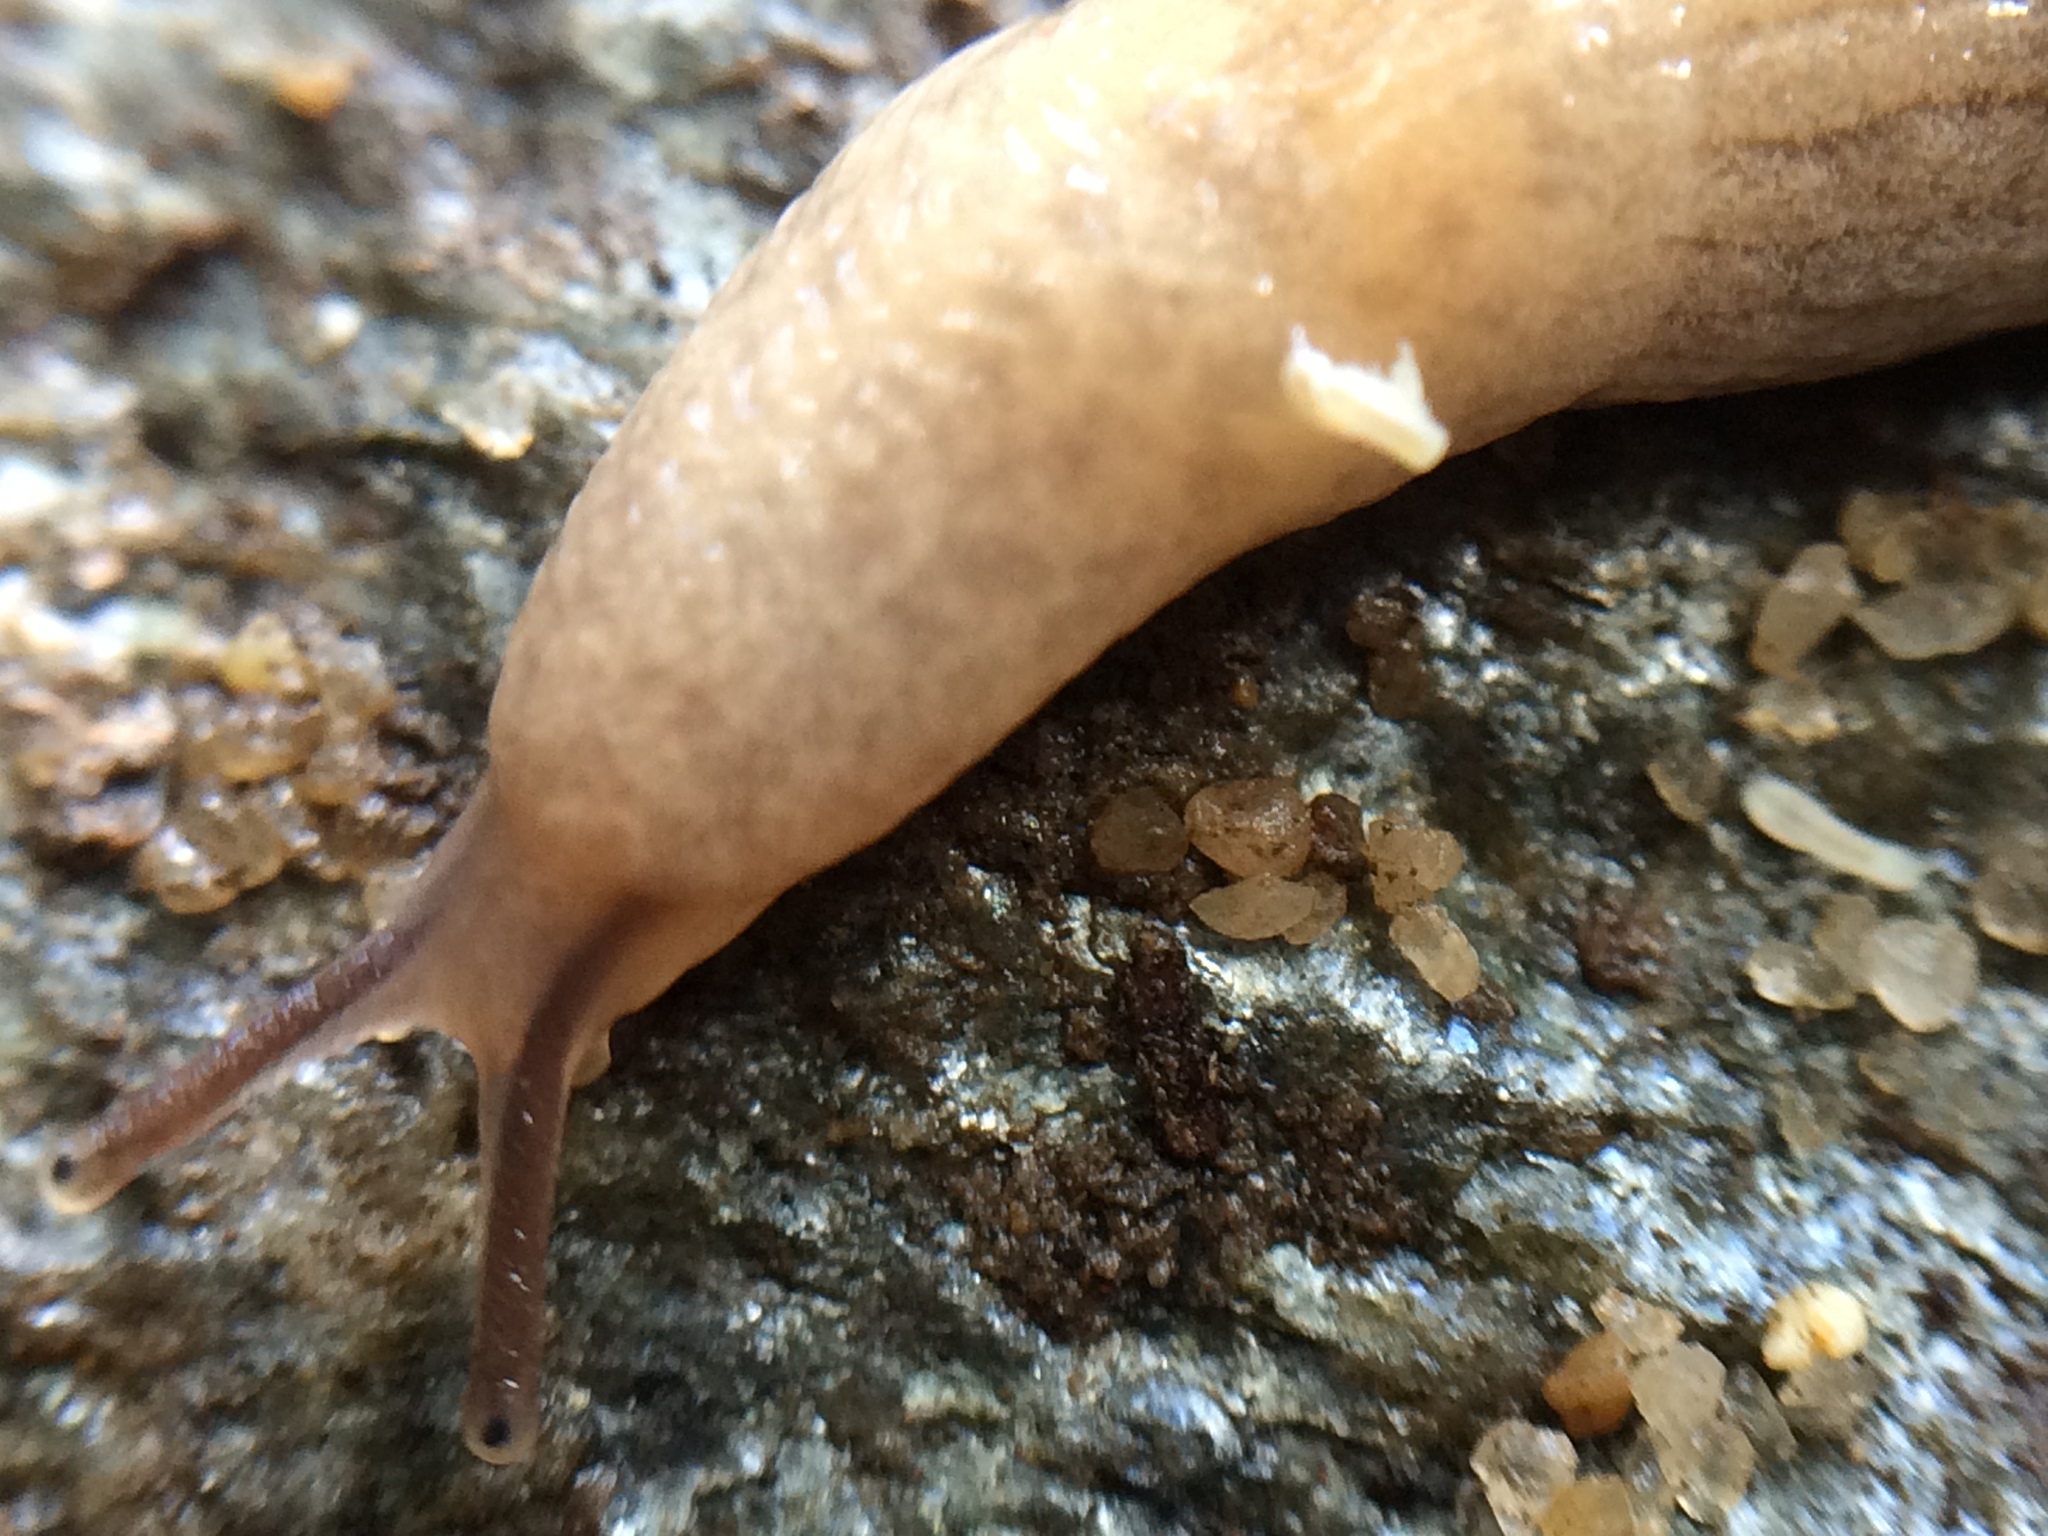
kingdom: Animalia
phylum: Mollusca
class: Gastropoda
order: Stylommatophora
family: Agriolimacidae
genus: Deroceras
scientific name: Deroceras reticulatum
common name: Gray field slug
